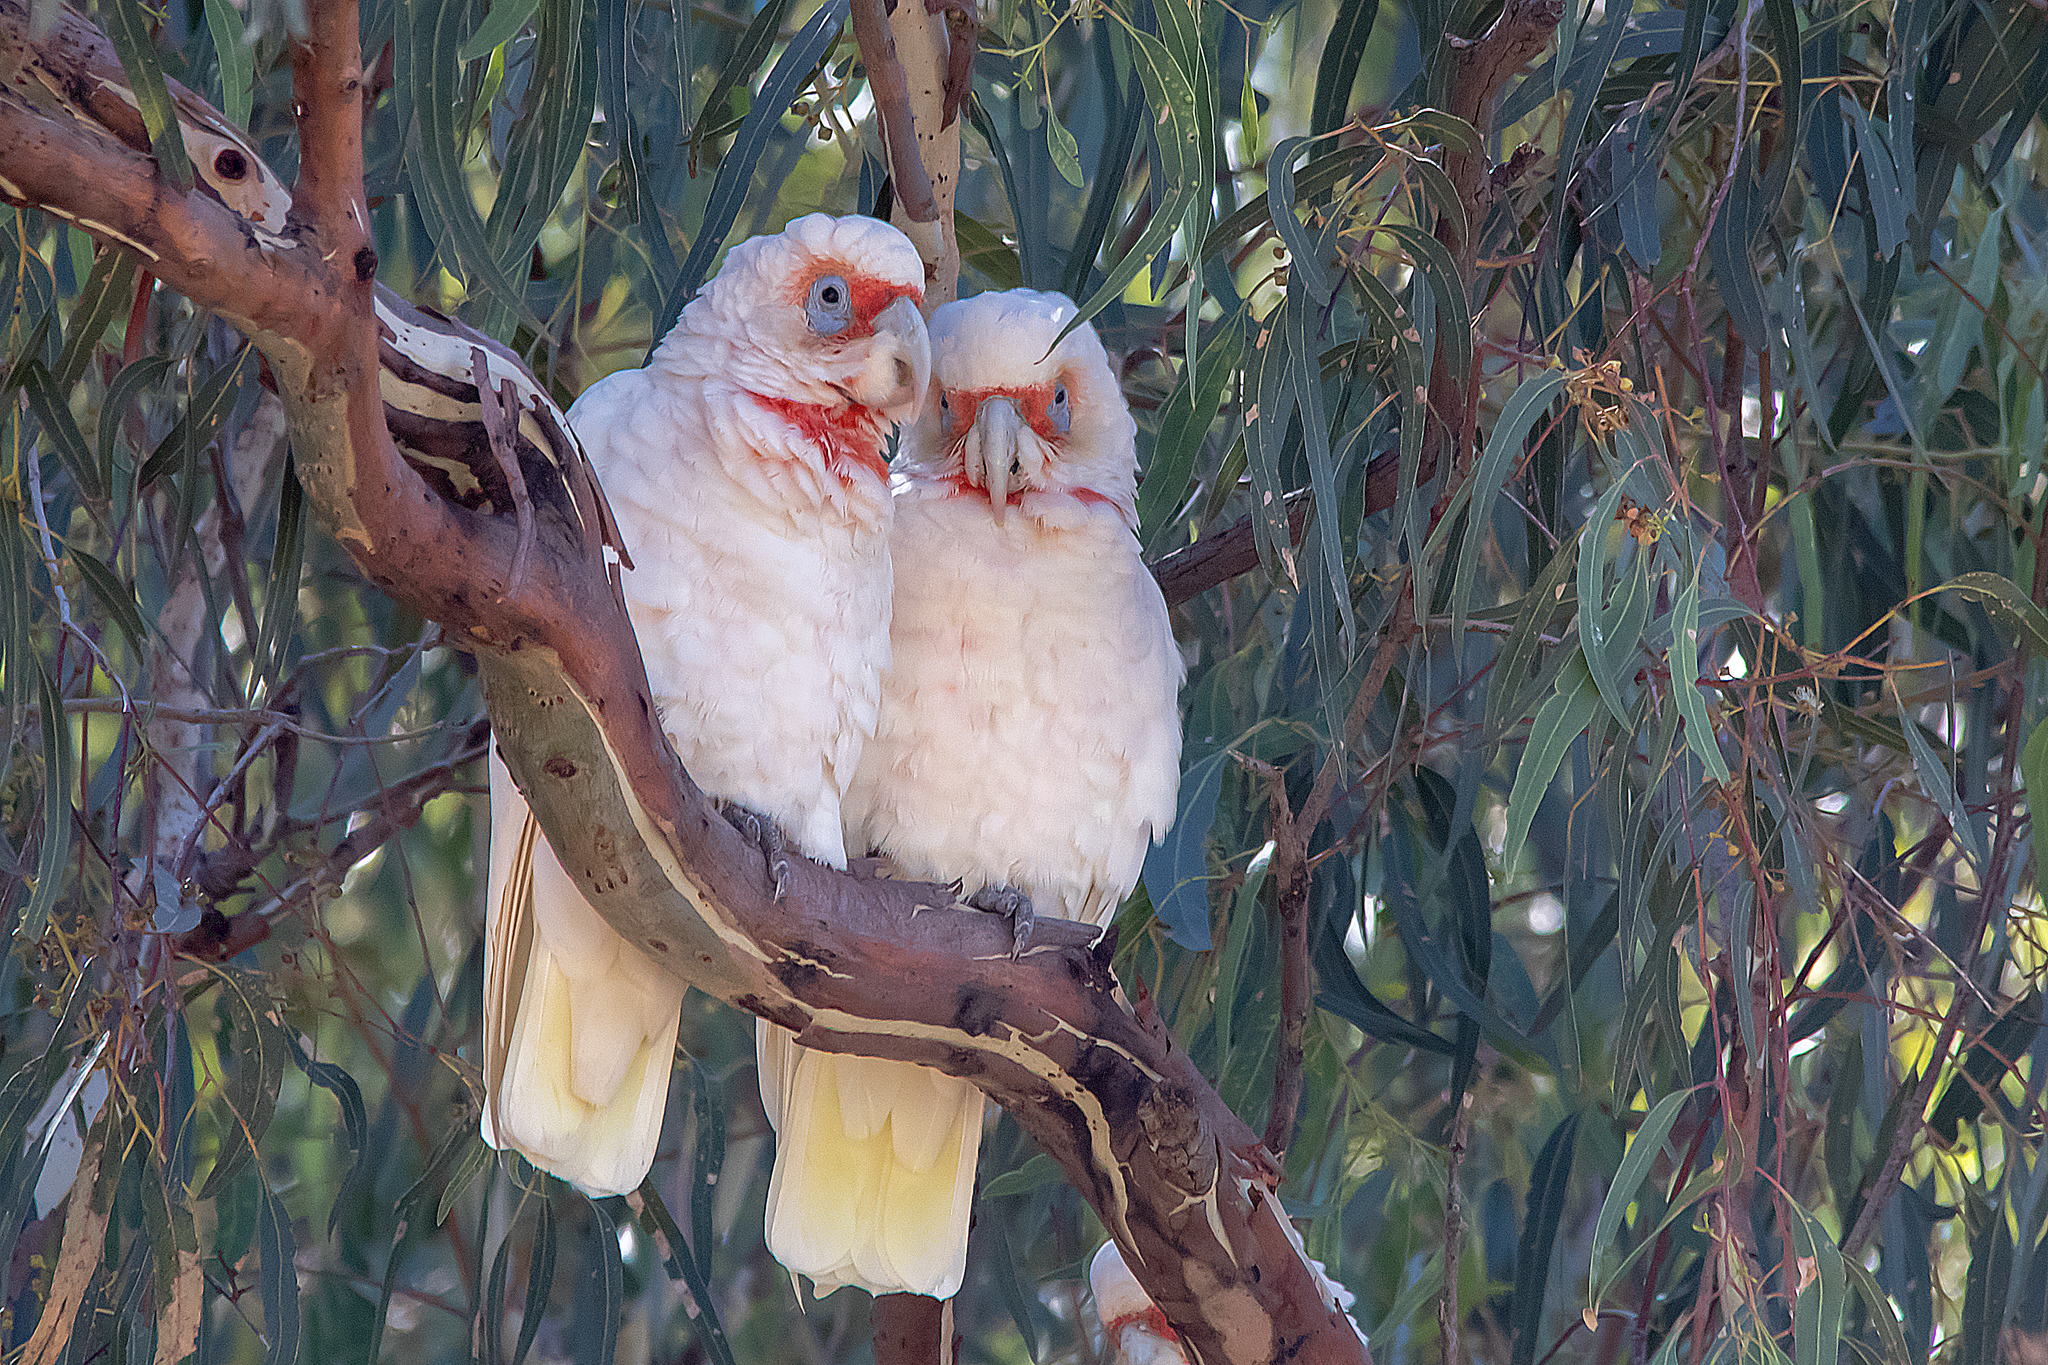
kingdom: Animalia
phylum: Chordata
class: Aves
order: Psittaciformes
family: Psittacidae
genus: Cacatua
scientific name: Cacatua tenuirostris
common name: Long-billed corella
